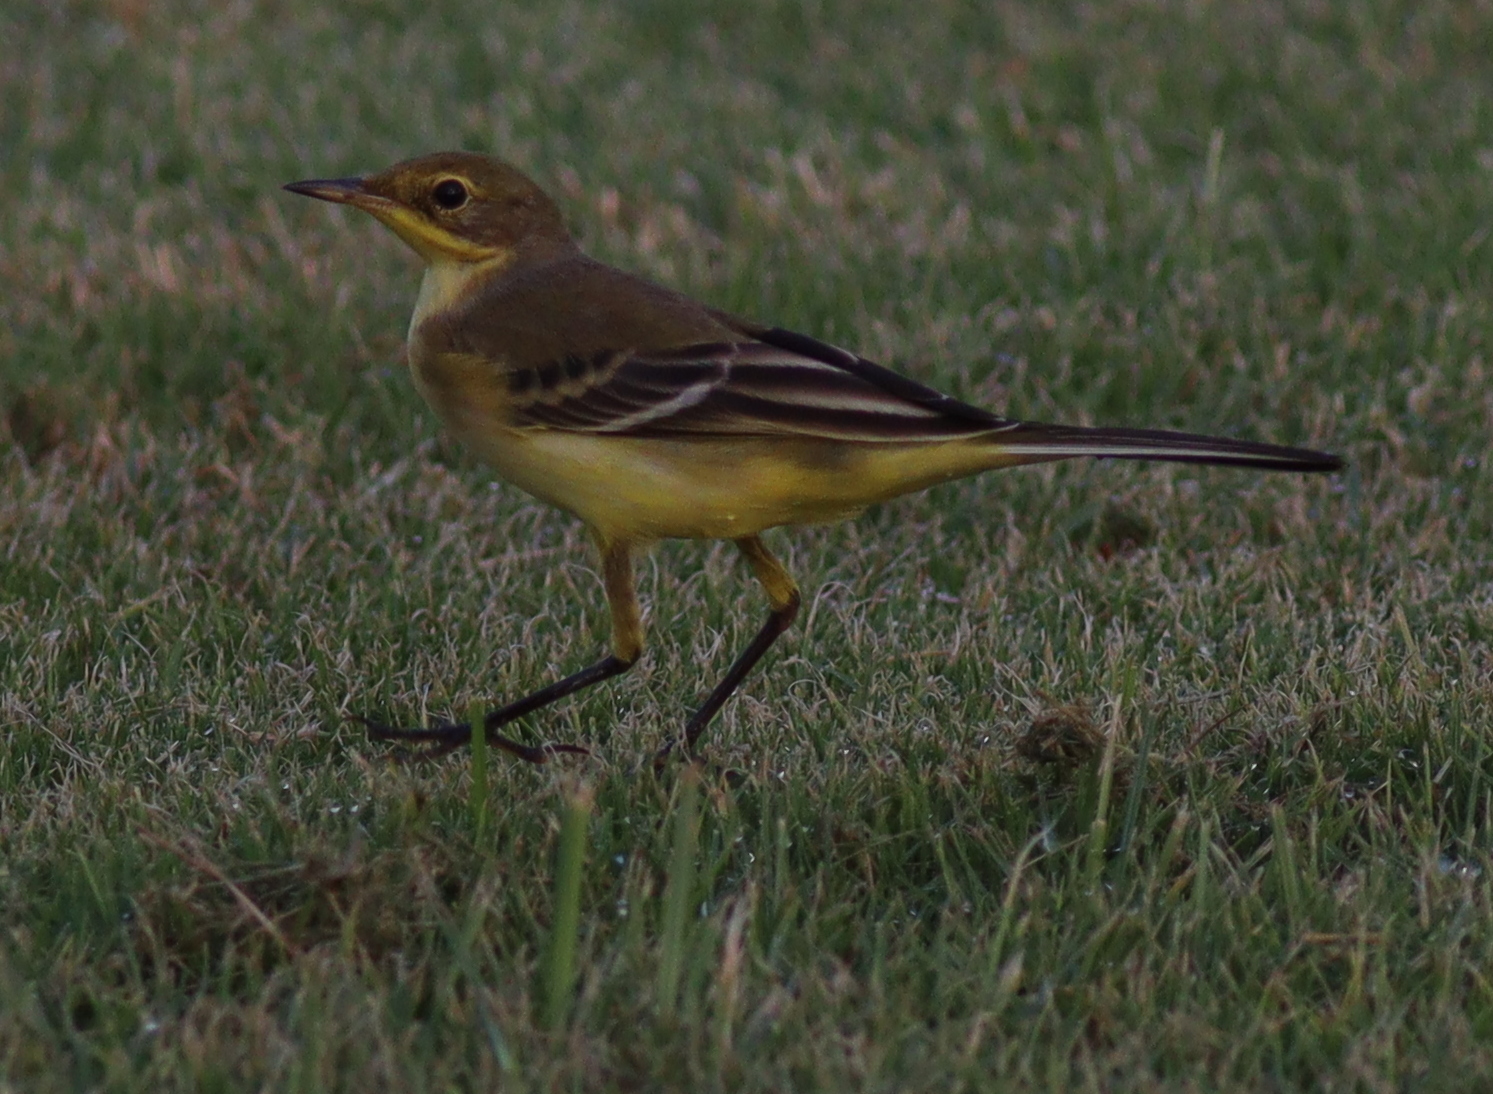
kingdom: Animalia
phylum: Chordata
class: Aves
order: Passeriformes
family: Motacillidae
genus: Motacilla
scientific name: Motacilla flava
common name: Western yellow wagtail
